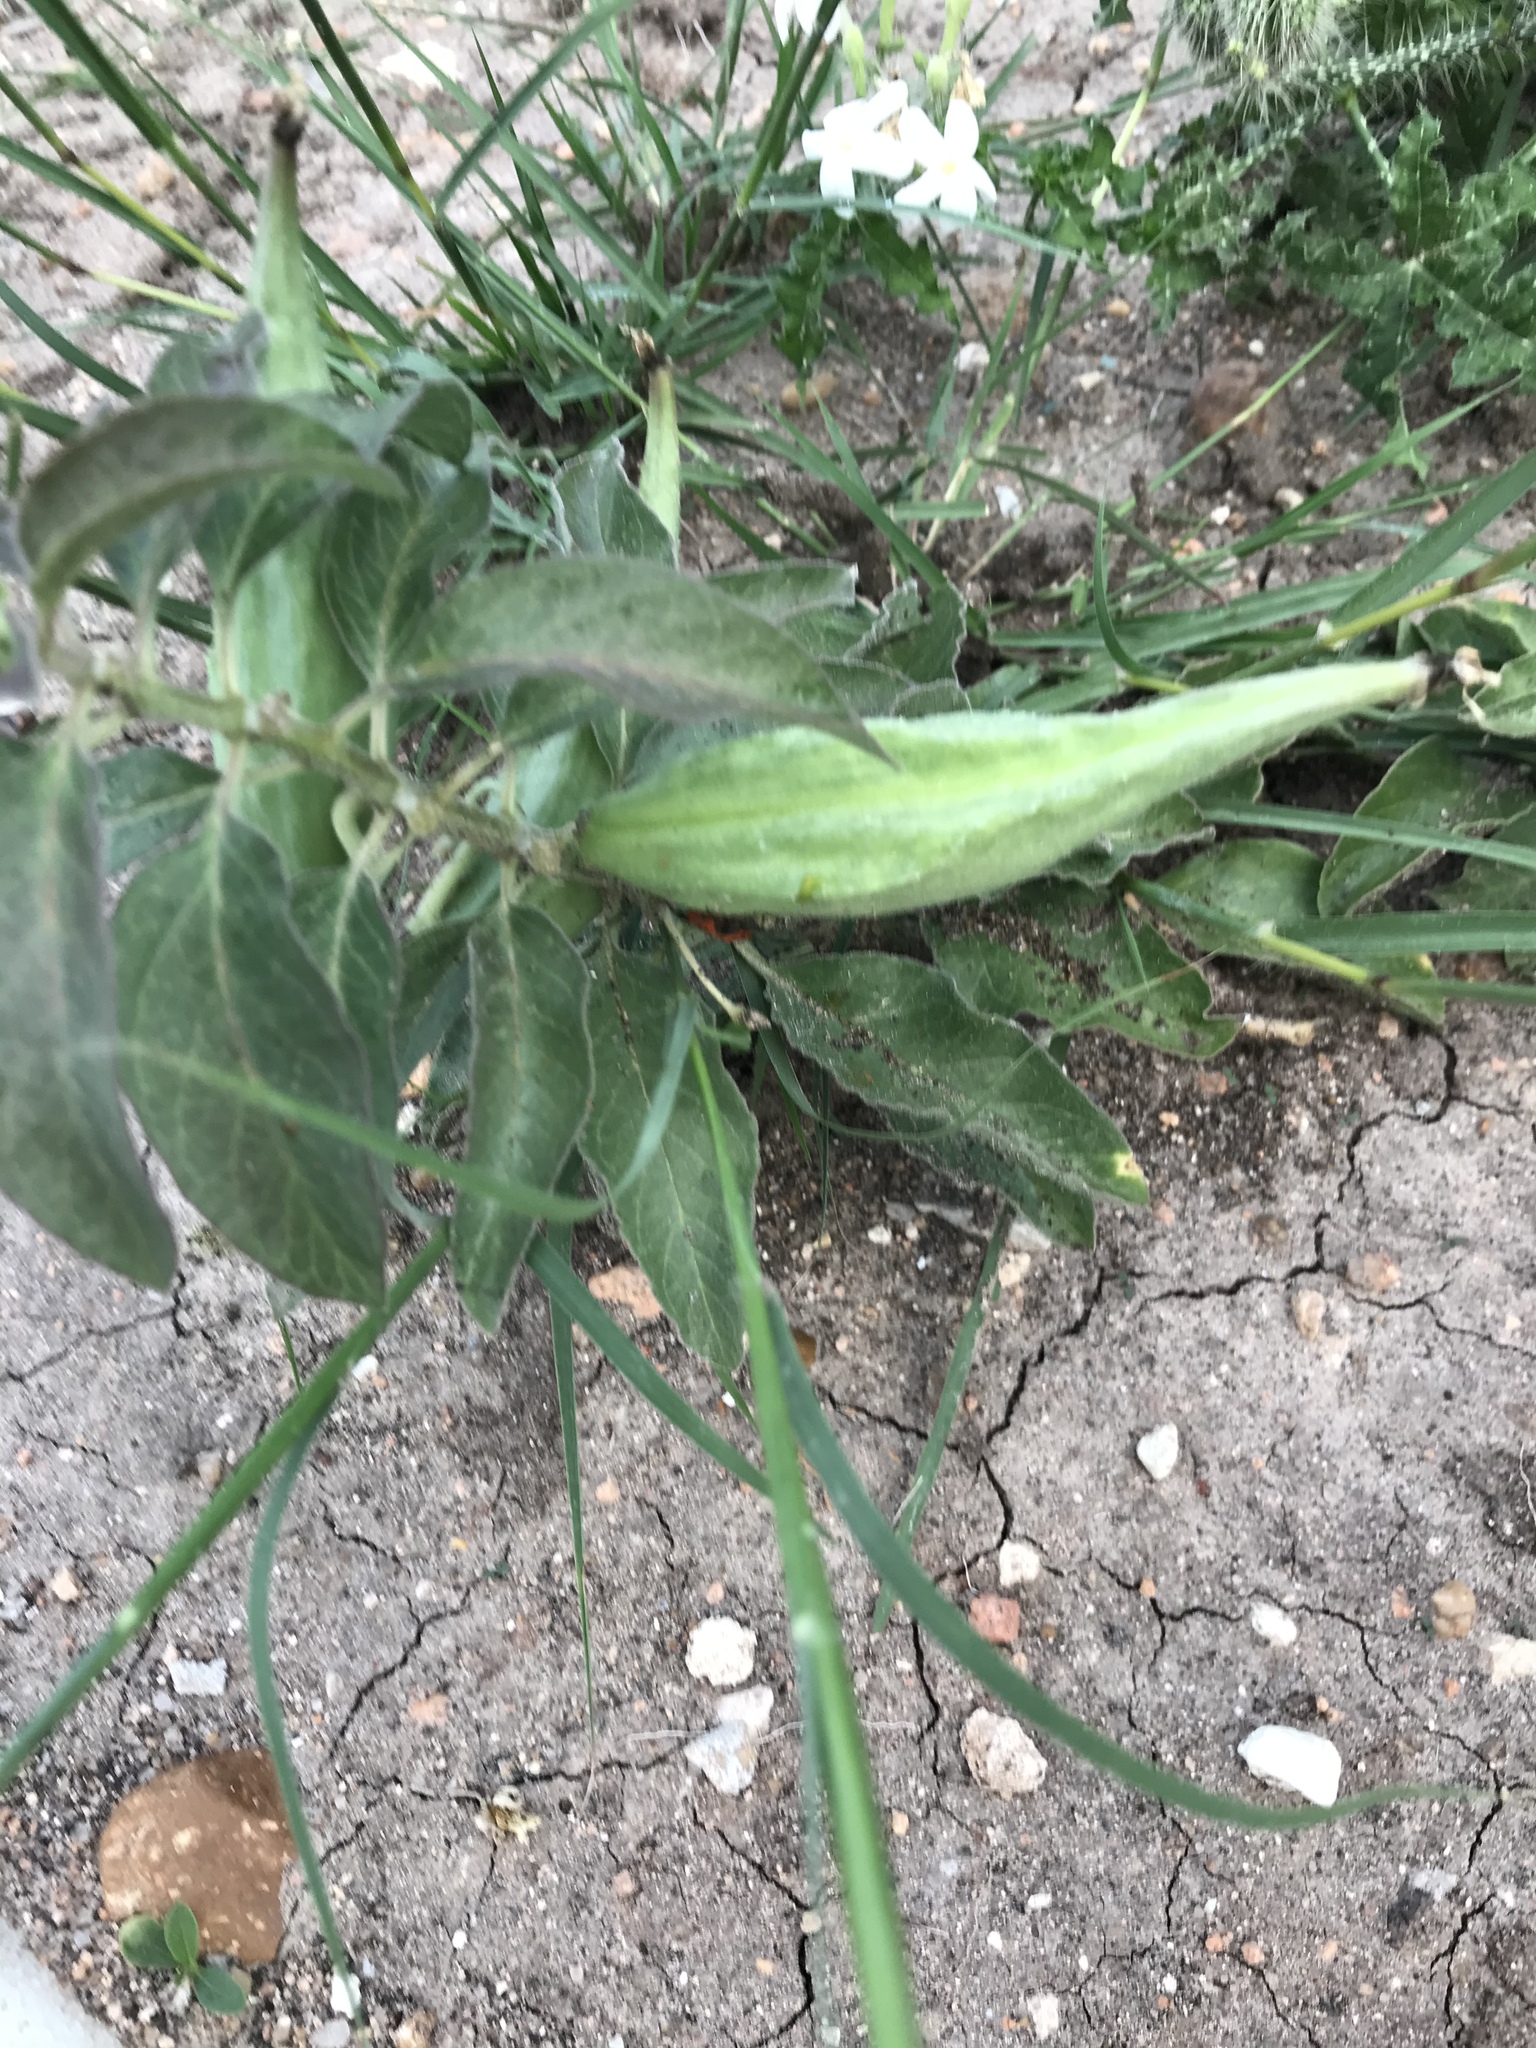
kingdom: Plantae
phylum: Tracheophyta
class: Magnoliopsida
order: Gentianales
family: Apocynaceae
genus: Asclepias
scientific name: Asclepias oenotheroides
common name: Zizotes milkweed
